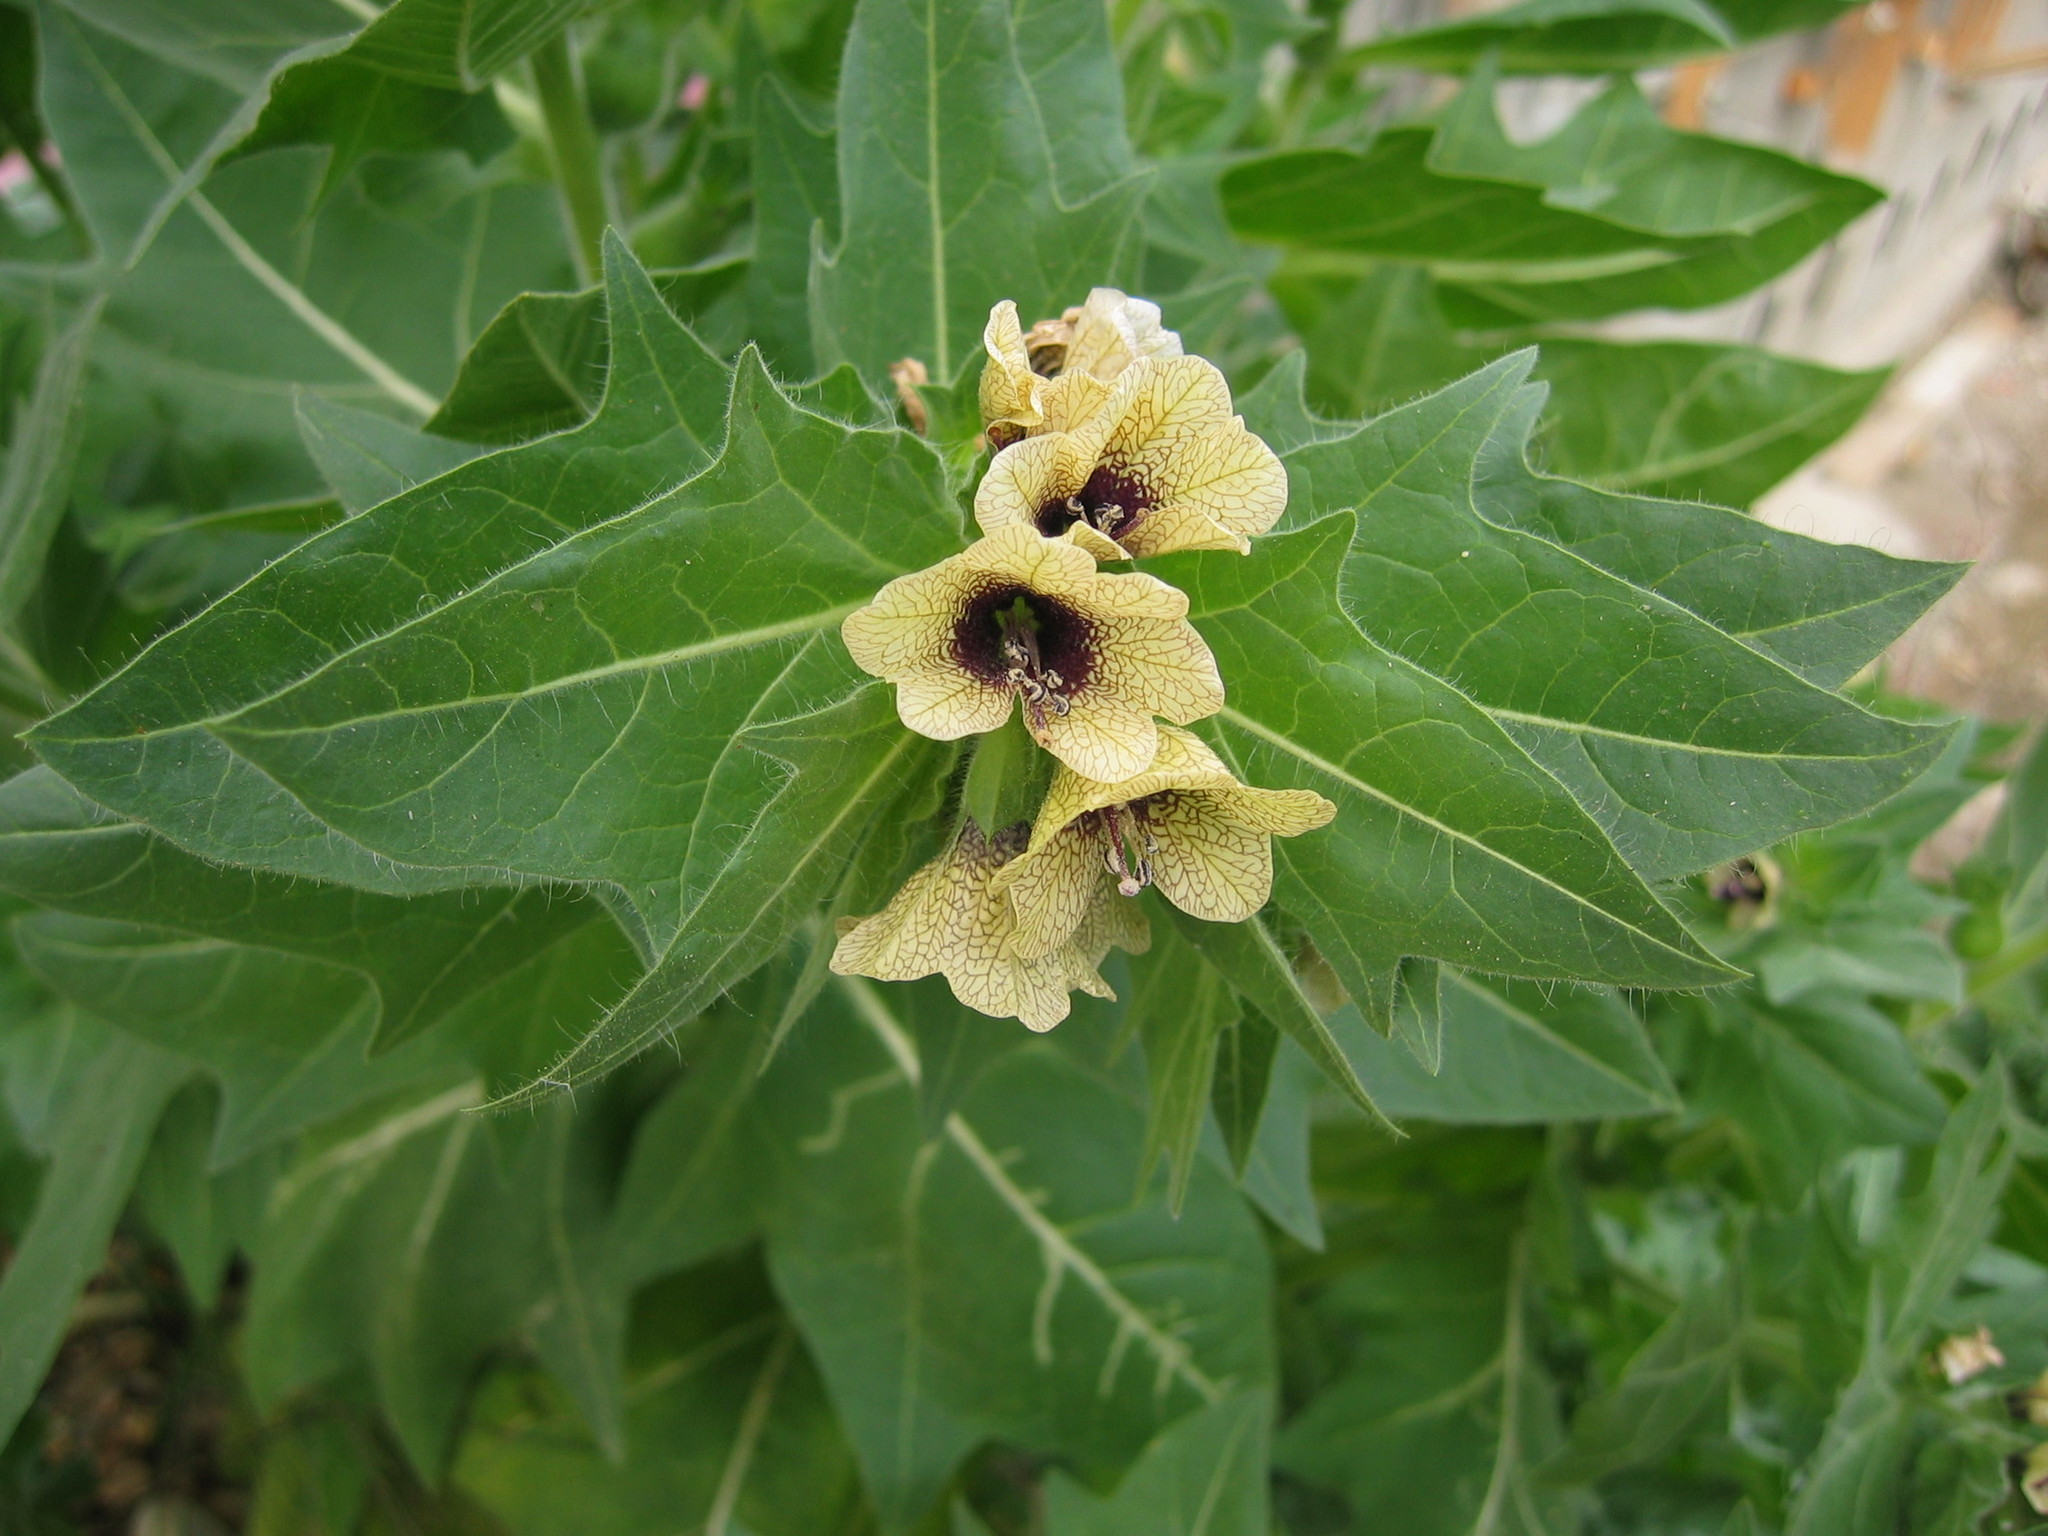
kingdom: Plantae
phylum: Tracheophyta
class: Magnoliopsida
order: Solanales
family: Solanaceae
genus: Hyoscyamus
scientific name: Hyoscyamus niger
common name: Henbane
